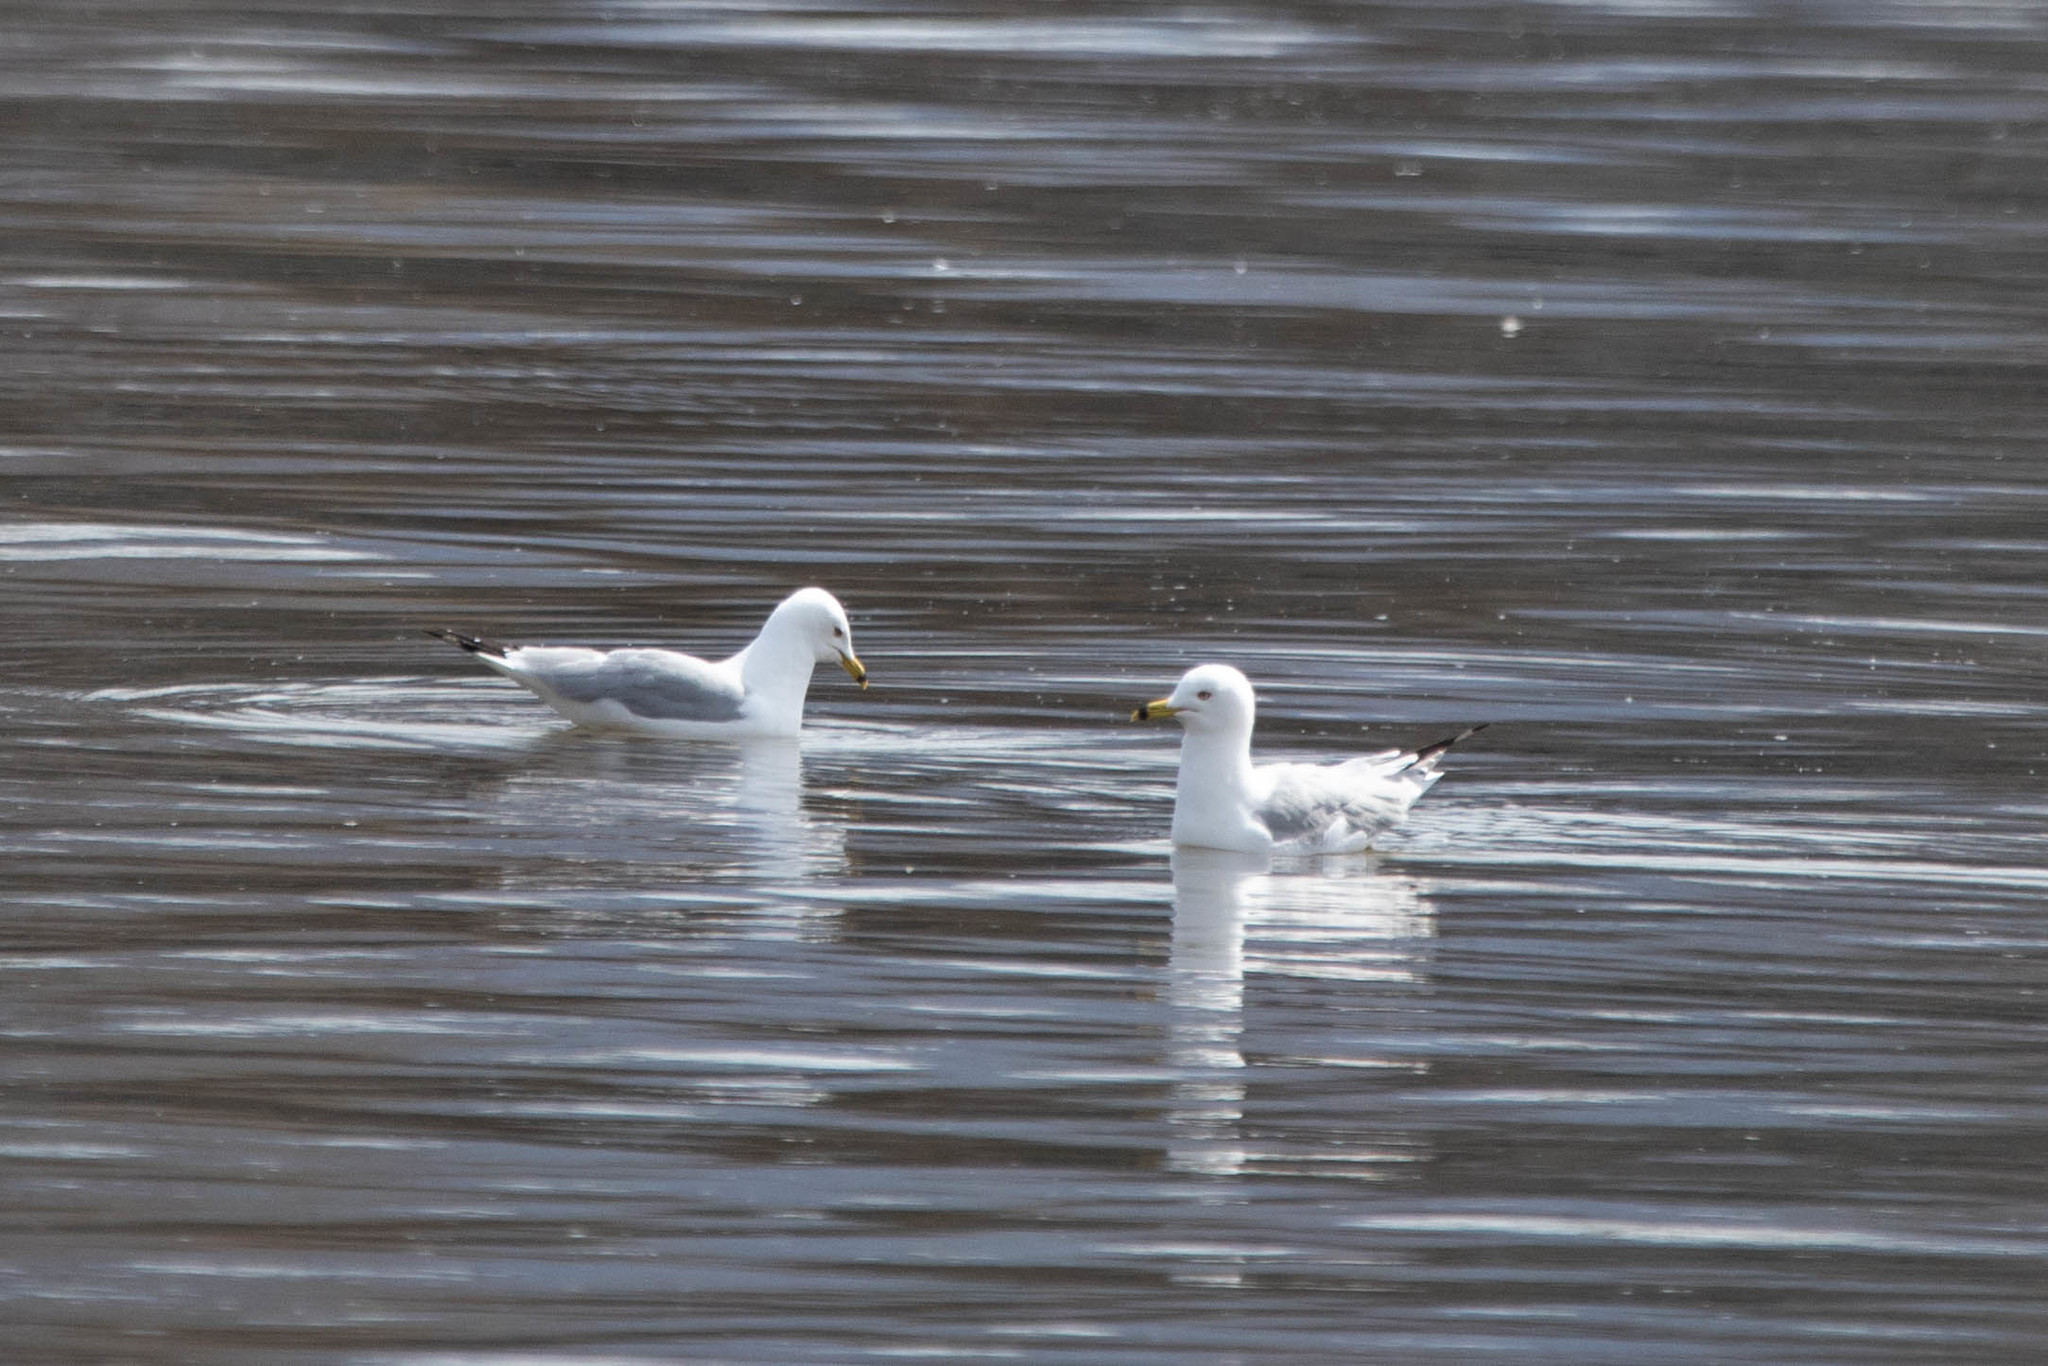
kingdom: Animalia
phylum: Chordata
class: Aves
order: Charadriiformes
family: Laridae
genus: Larus
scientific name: Larus delawarensis
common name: Ring-billed gull
